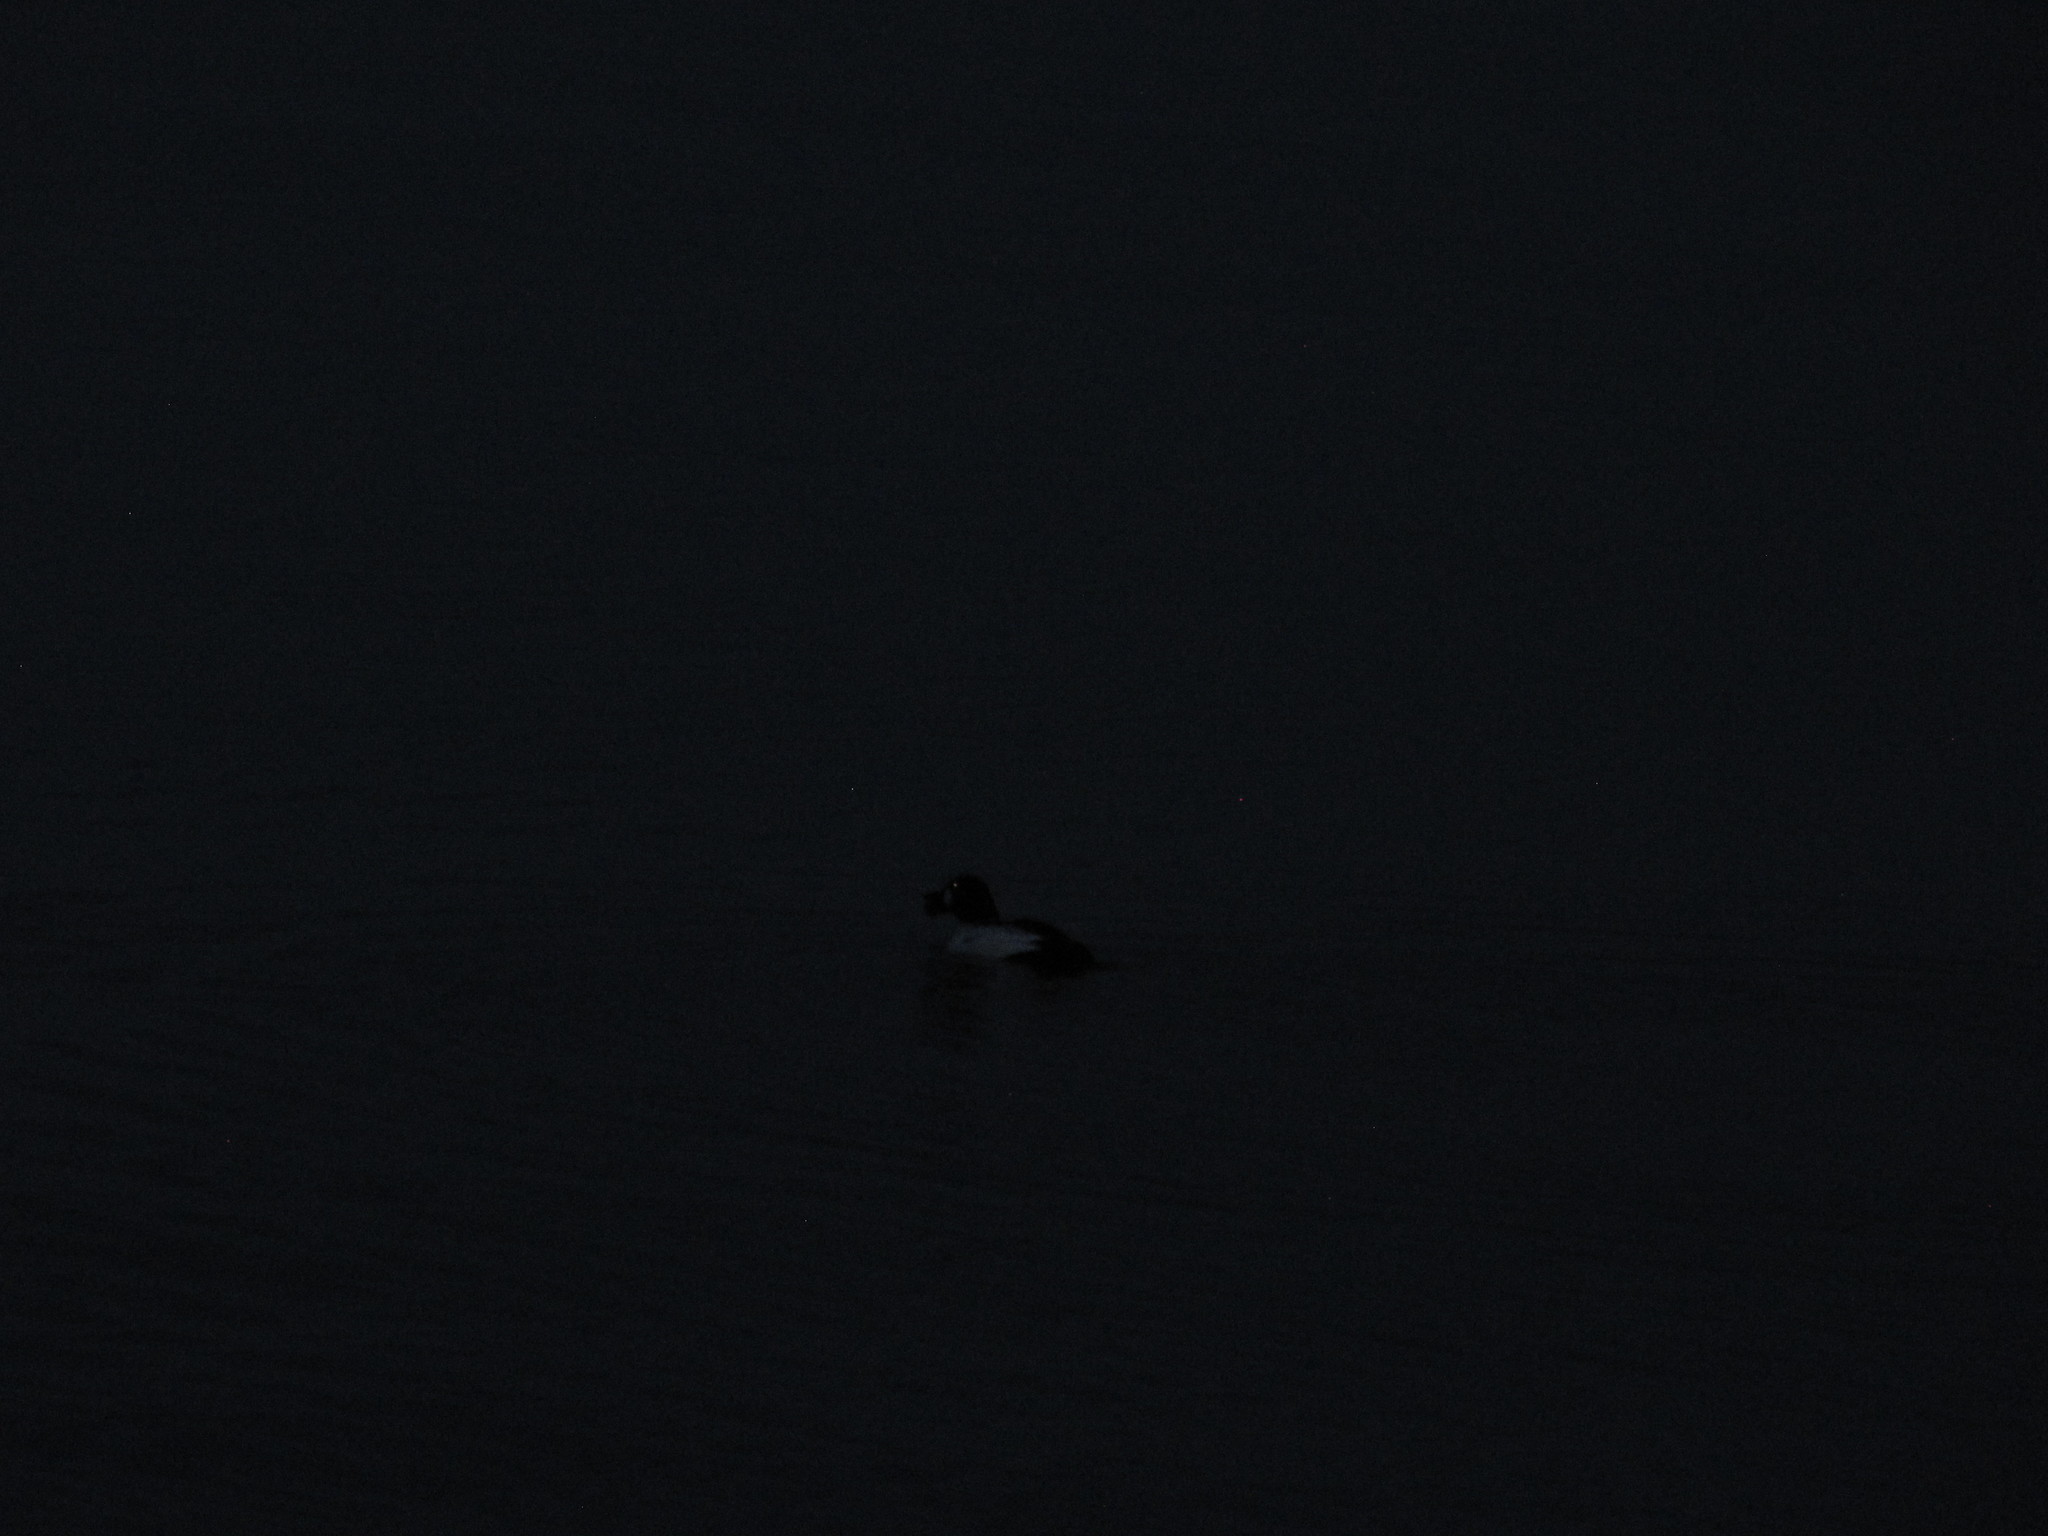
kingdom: Animalia
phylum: Chordata
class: Aves
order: Anseriformes
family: Anatidae
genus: Bucephala
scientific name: Bucephala clangula
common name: Common goldeneye
